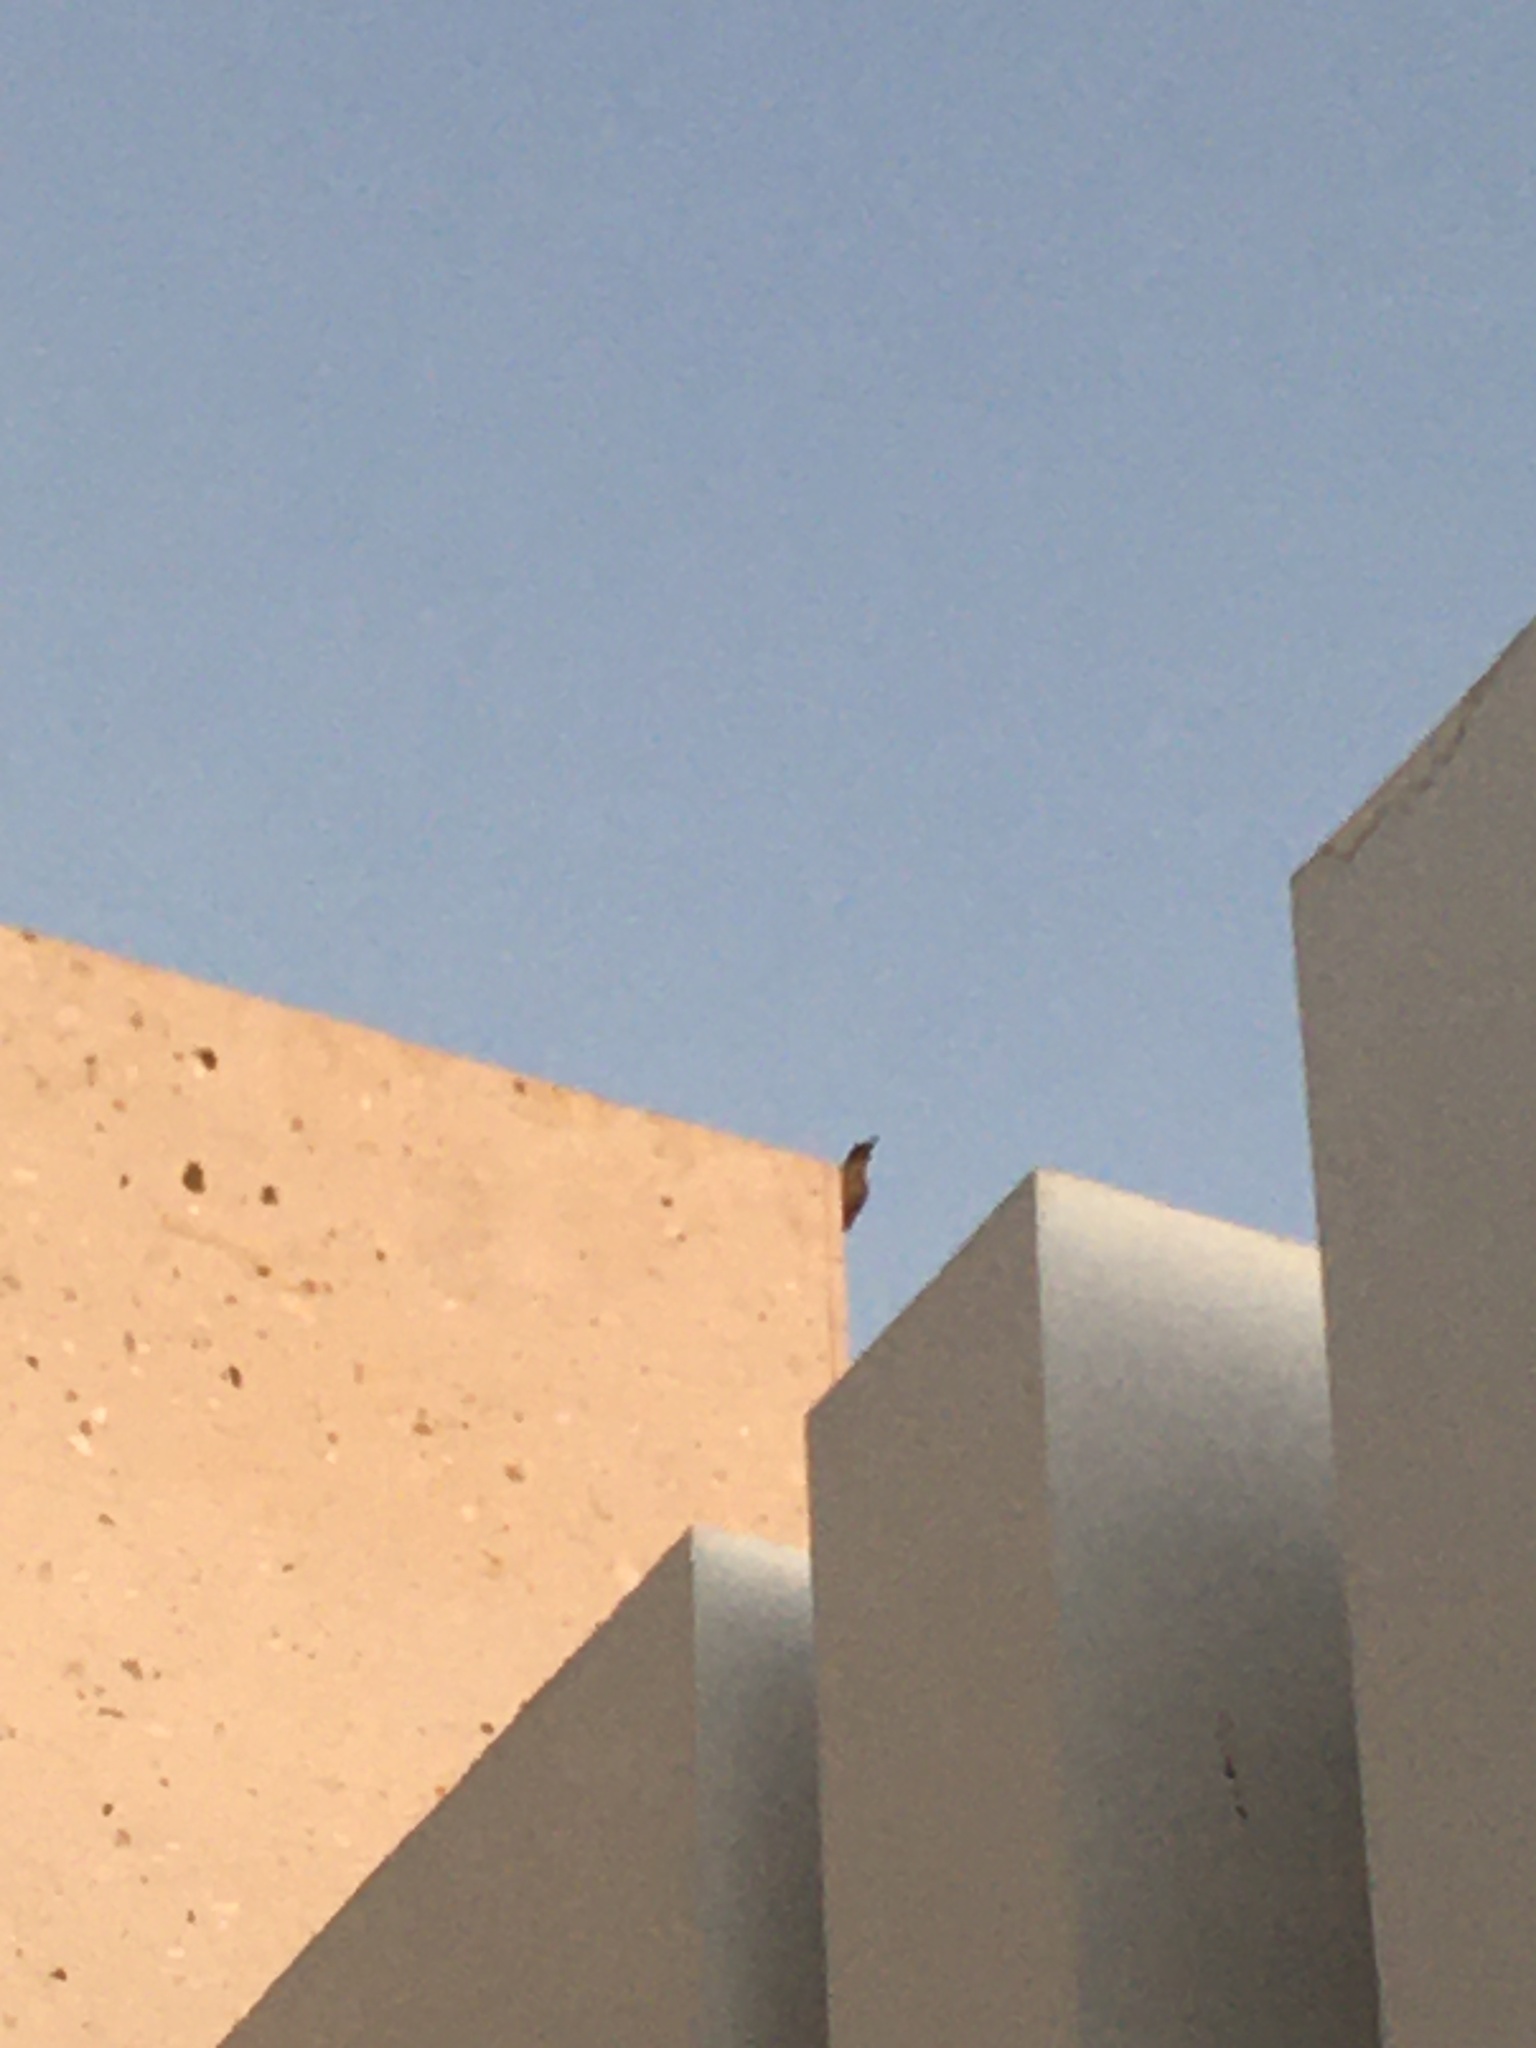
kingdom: Animalia
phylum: Chordata
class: Aves
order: Piciformes
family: Picidae
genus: Melanerpes
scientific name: Melanerpes uropygialis
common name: Gila woodpecker
